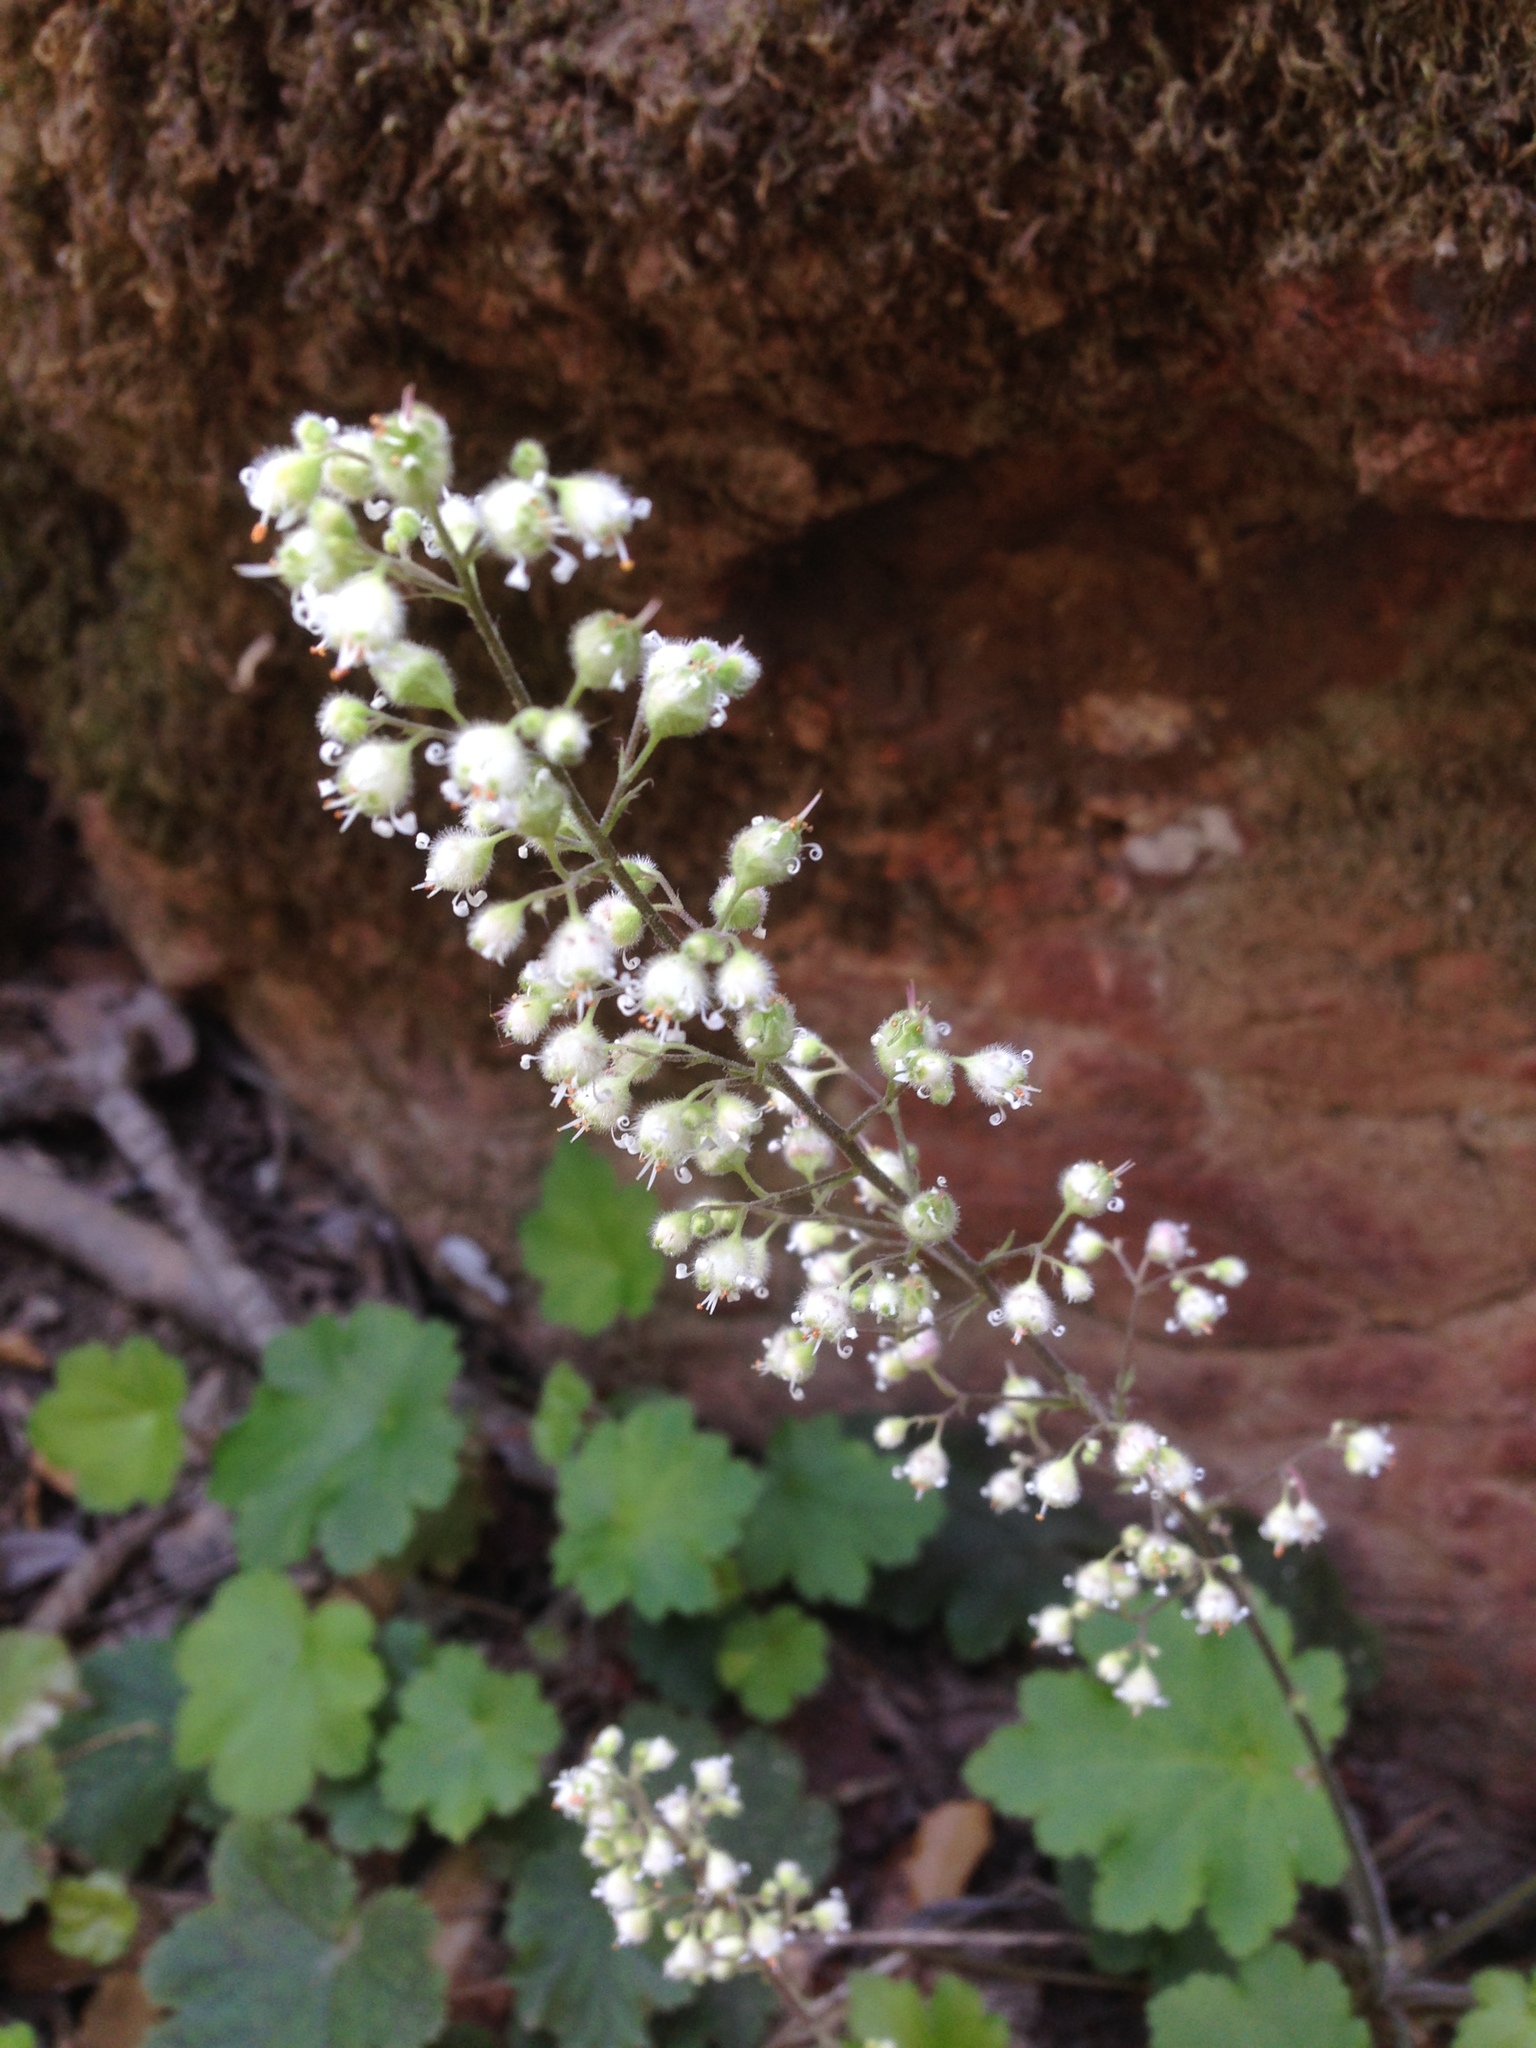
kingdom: Plantae
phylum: Tracheophyta
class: Magnoliopsida
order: Saxifragales
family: Saxifragaceae
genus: Heuchera
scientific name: Heuchera maxima
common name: Island alumroot
